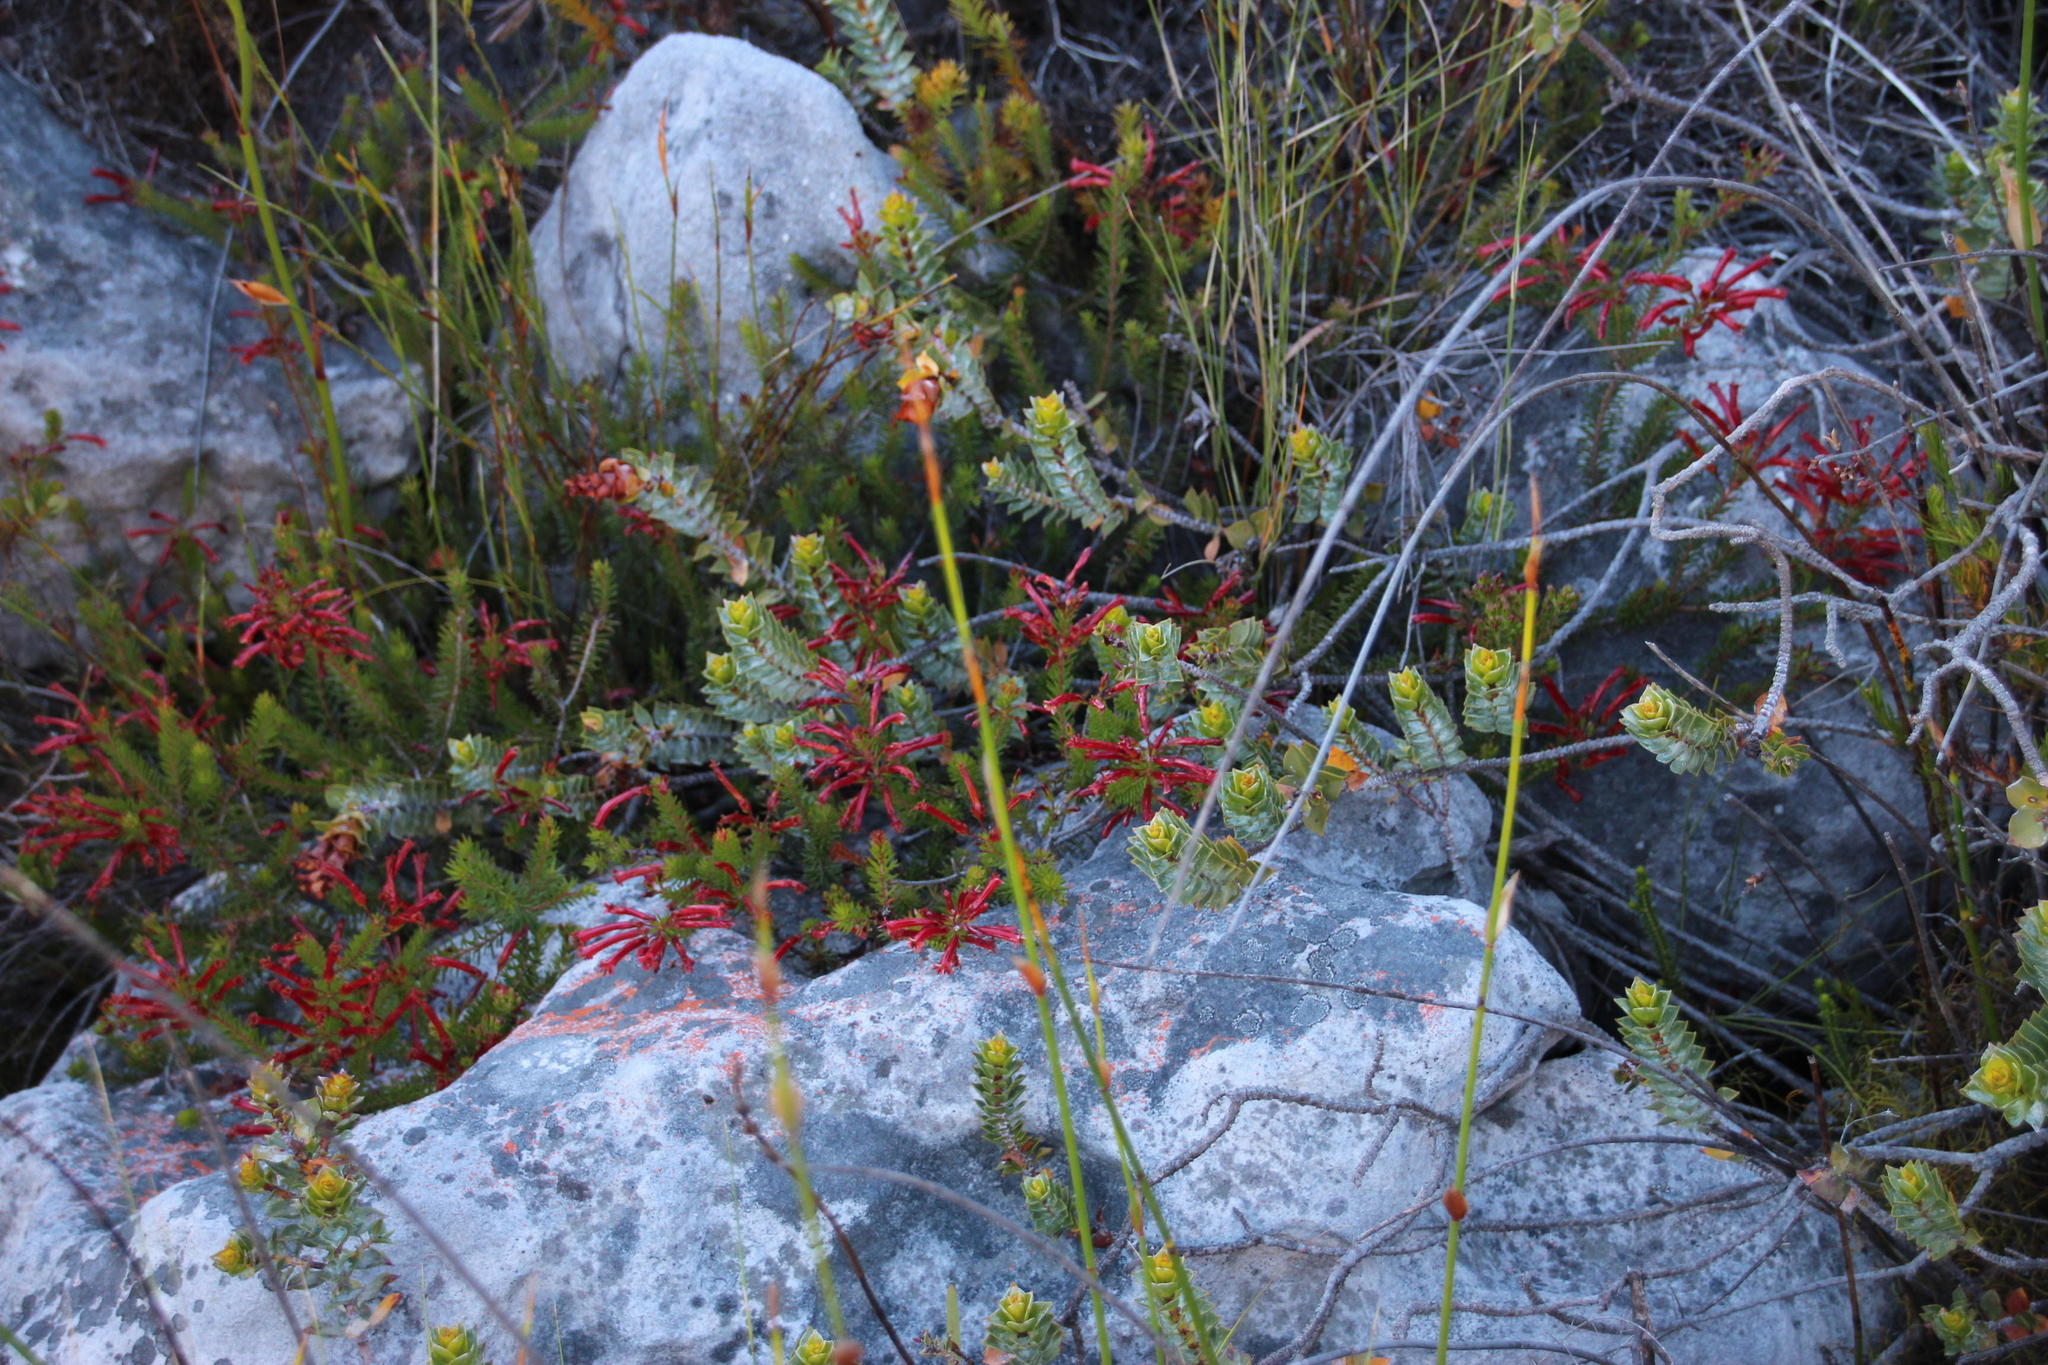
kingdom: Plantae
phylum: Tracheophyta
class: Magnoliopsida
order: Ericales
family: Ericaceae
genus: Erica
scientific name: Erica nevillei
